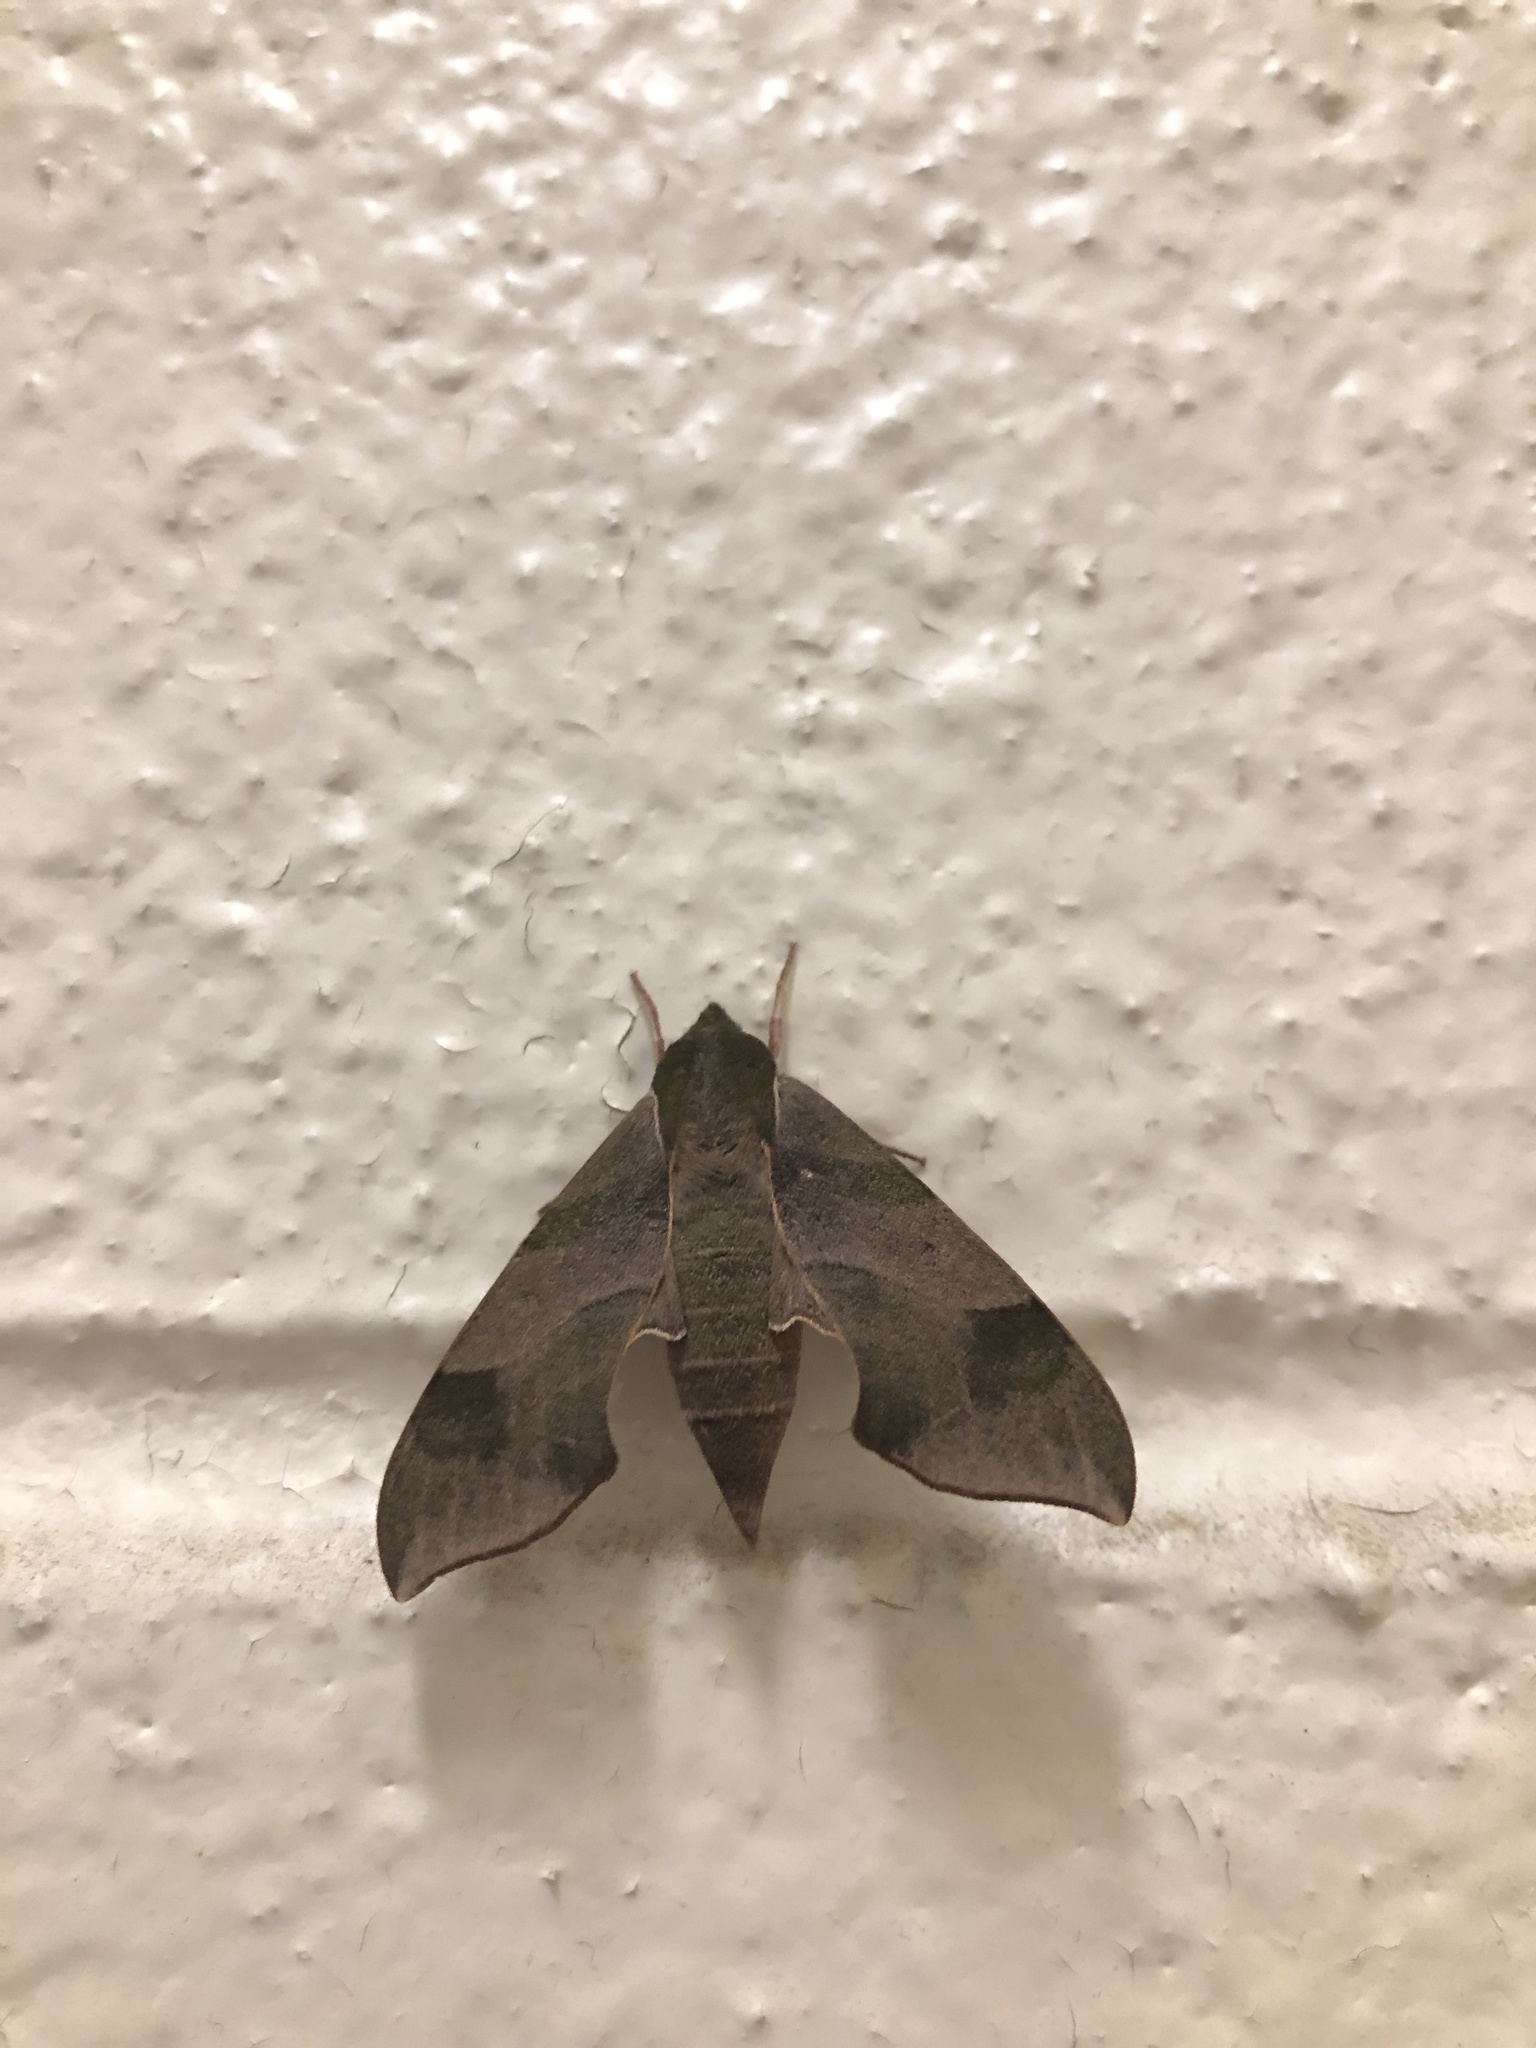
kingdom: Animalia
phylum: Arthropoda
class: Insecta
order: Lepidoptera
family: Sphingidae
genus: Darapsa
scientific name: Darapsa myron
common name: Hog sphinx
